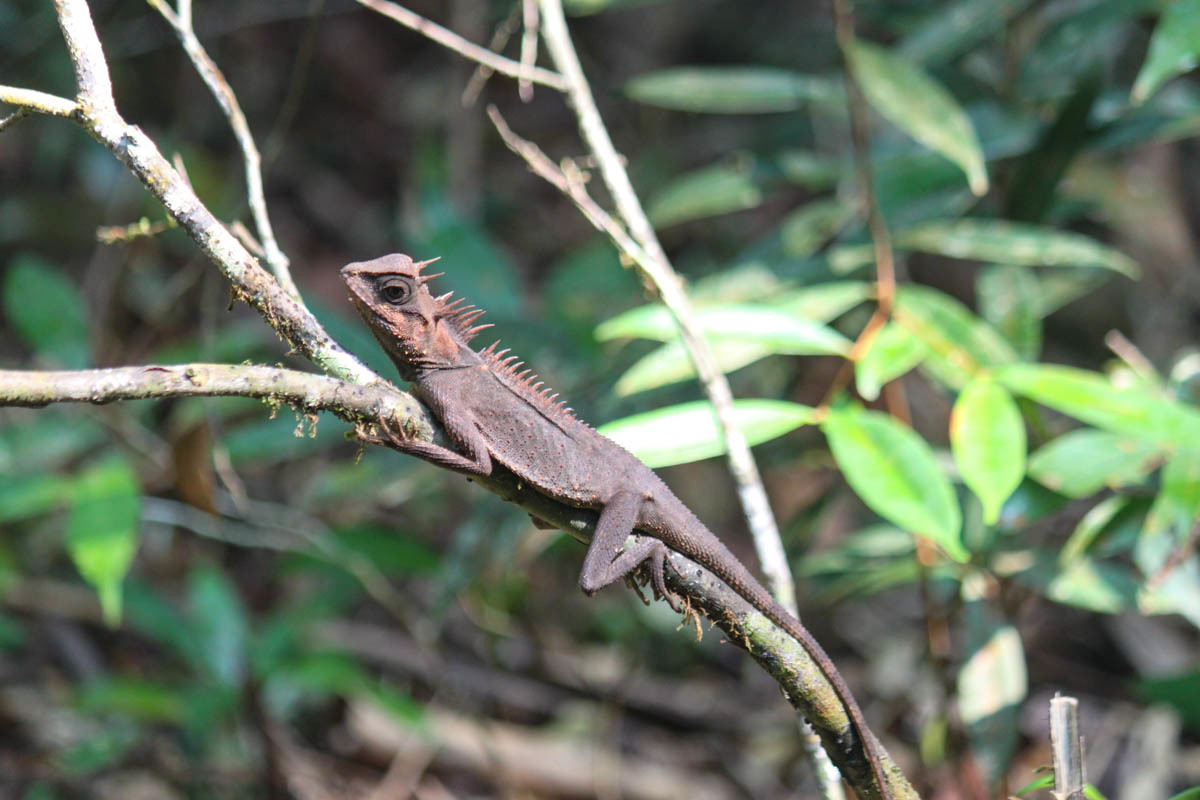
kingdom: Animalia
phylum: Chordata
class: Squamata
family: Agamidae
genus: Acanthosaura
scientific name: Acanthosaura cardamomensis
